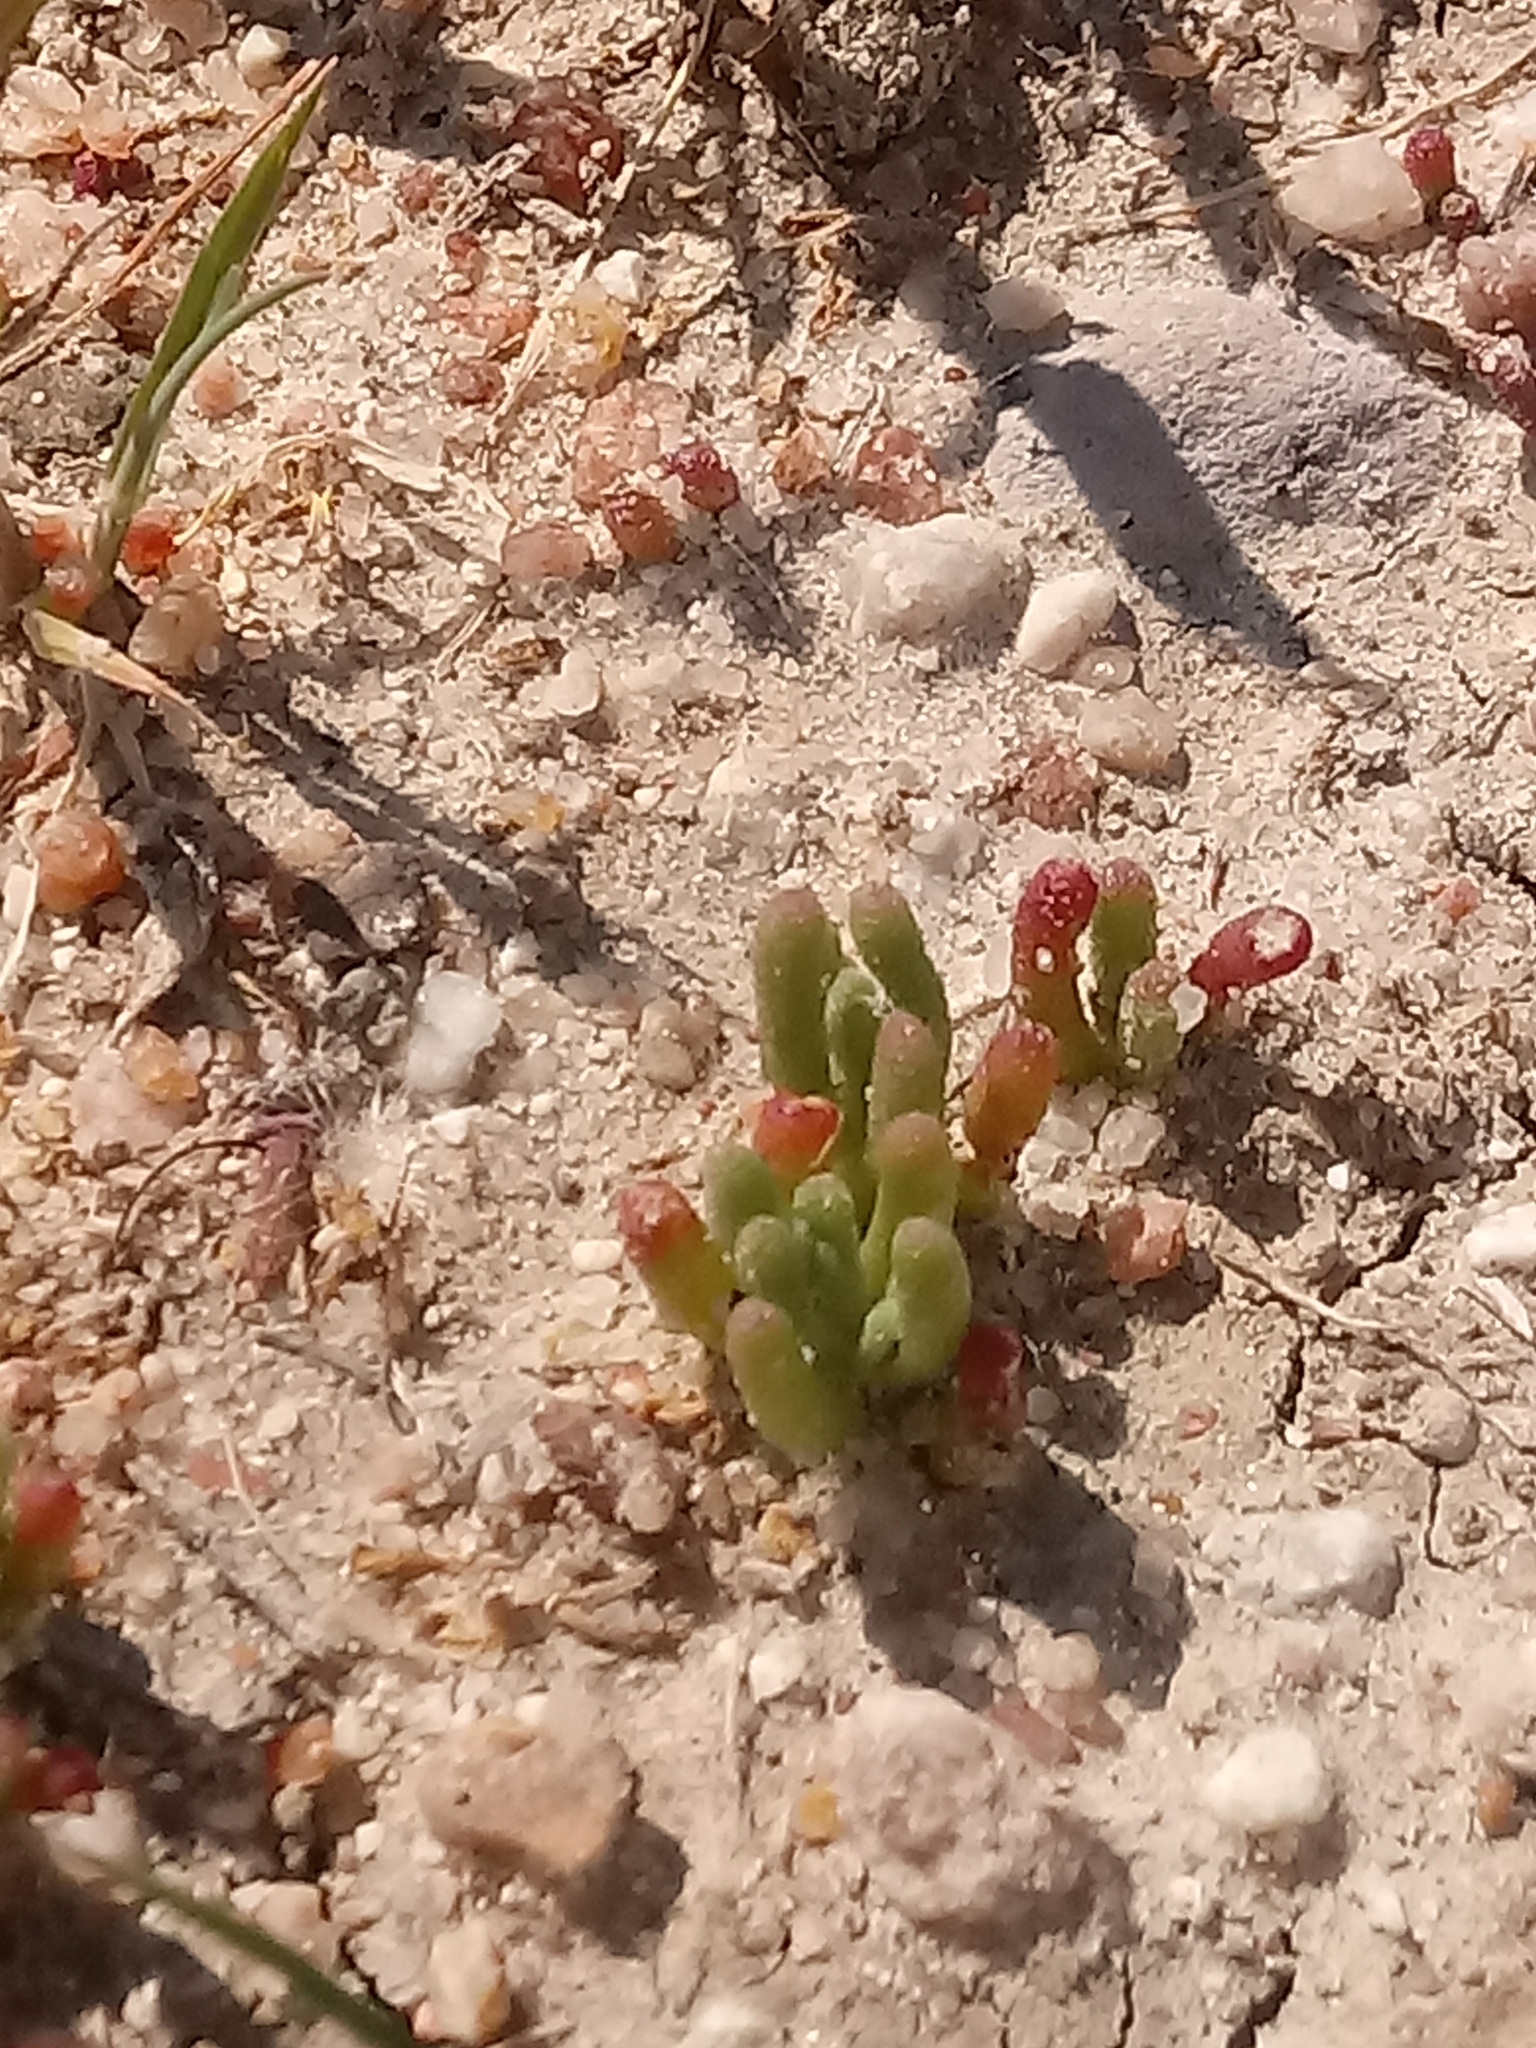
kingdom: Plantae
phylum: Tracheophyta
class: Magnoliopsida
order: Caryophyllales
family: Aizoaceae
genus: Mesembryanthemum
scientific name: Mesembryanthemum nodiflorum
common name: Slenderleaf iceplant
